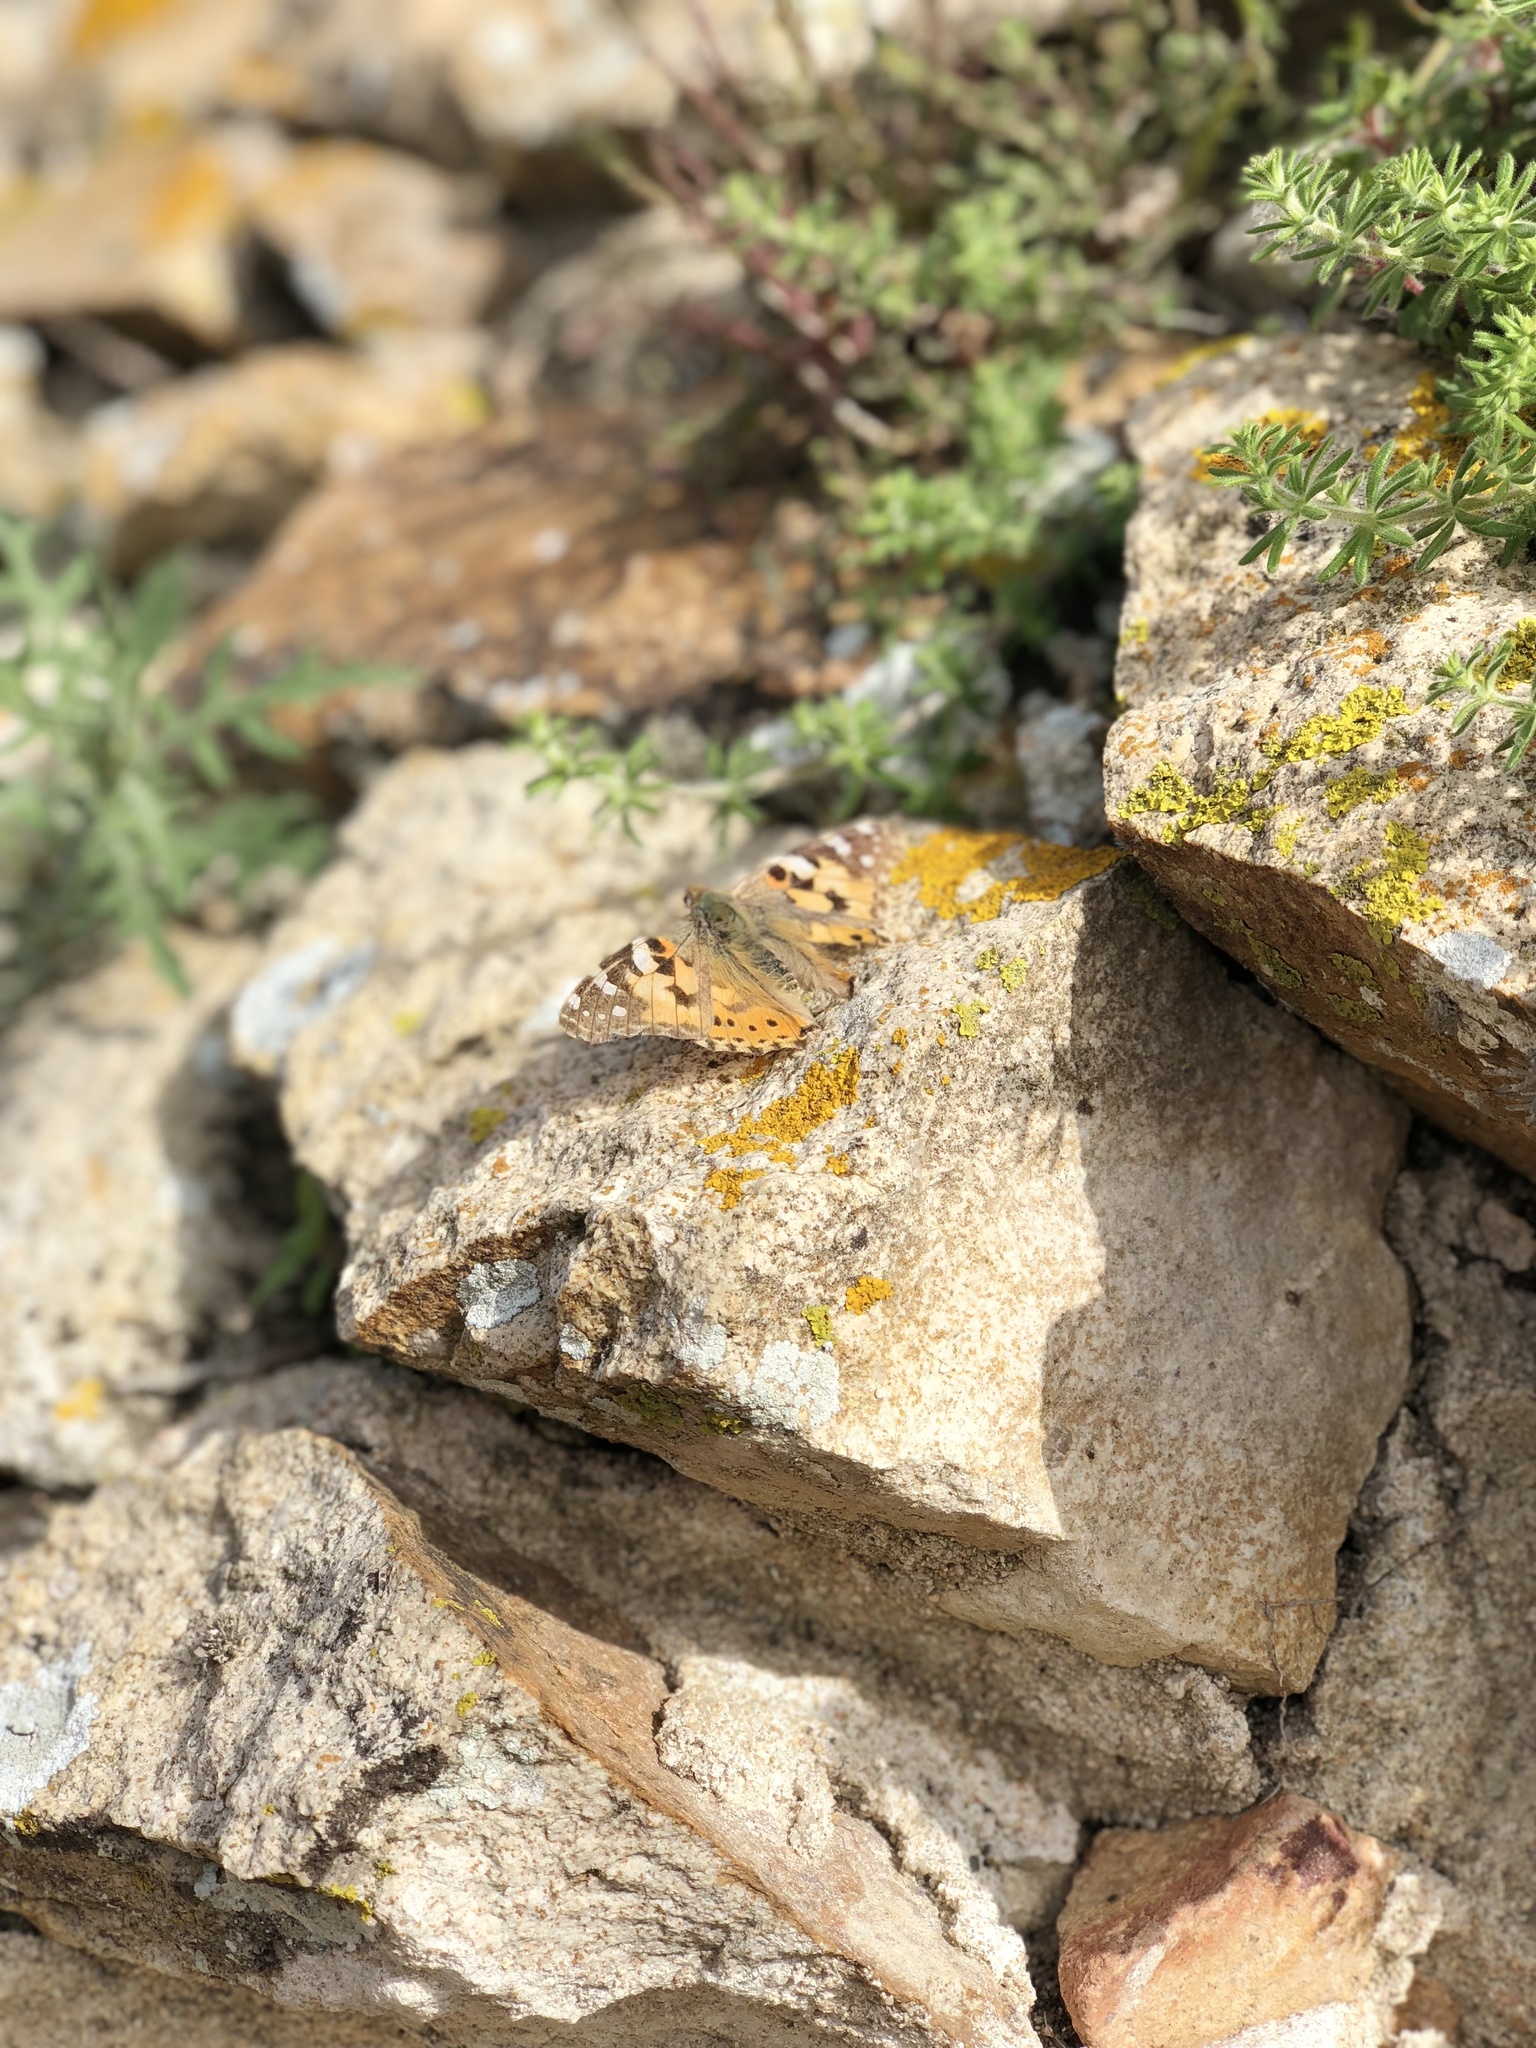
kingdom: Animalia
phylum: Arthropoda
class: Insecta
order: Lepidoptera
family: Nymphalidae
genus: Vanessa
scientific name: Vanessa cardui
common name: Painted lady
